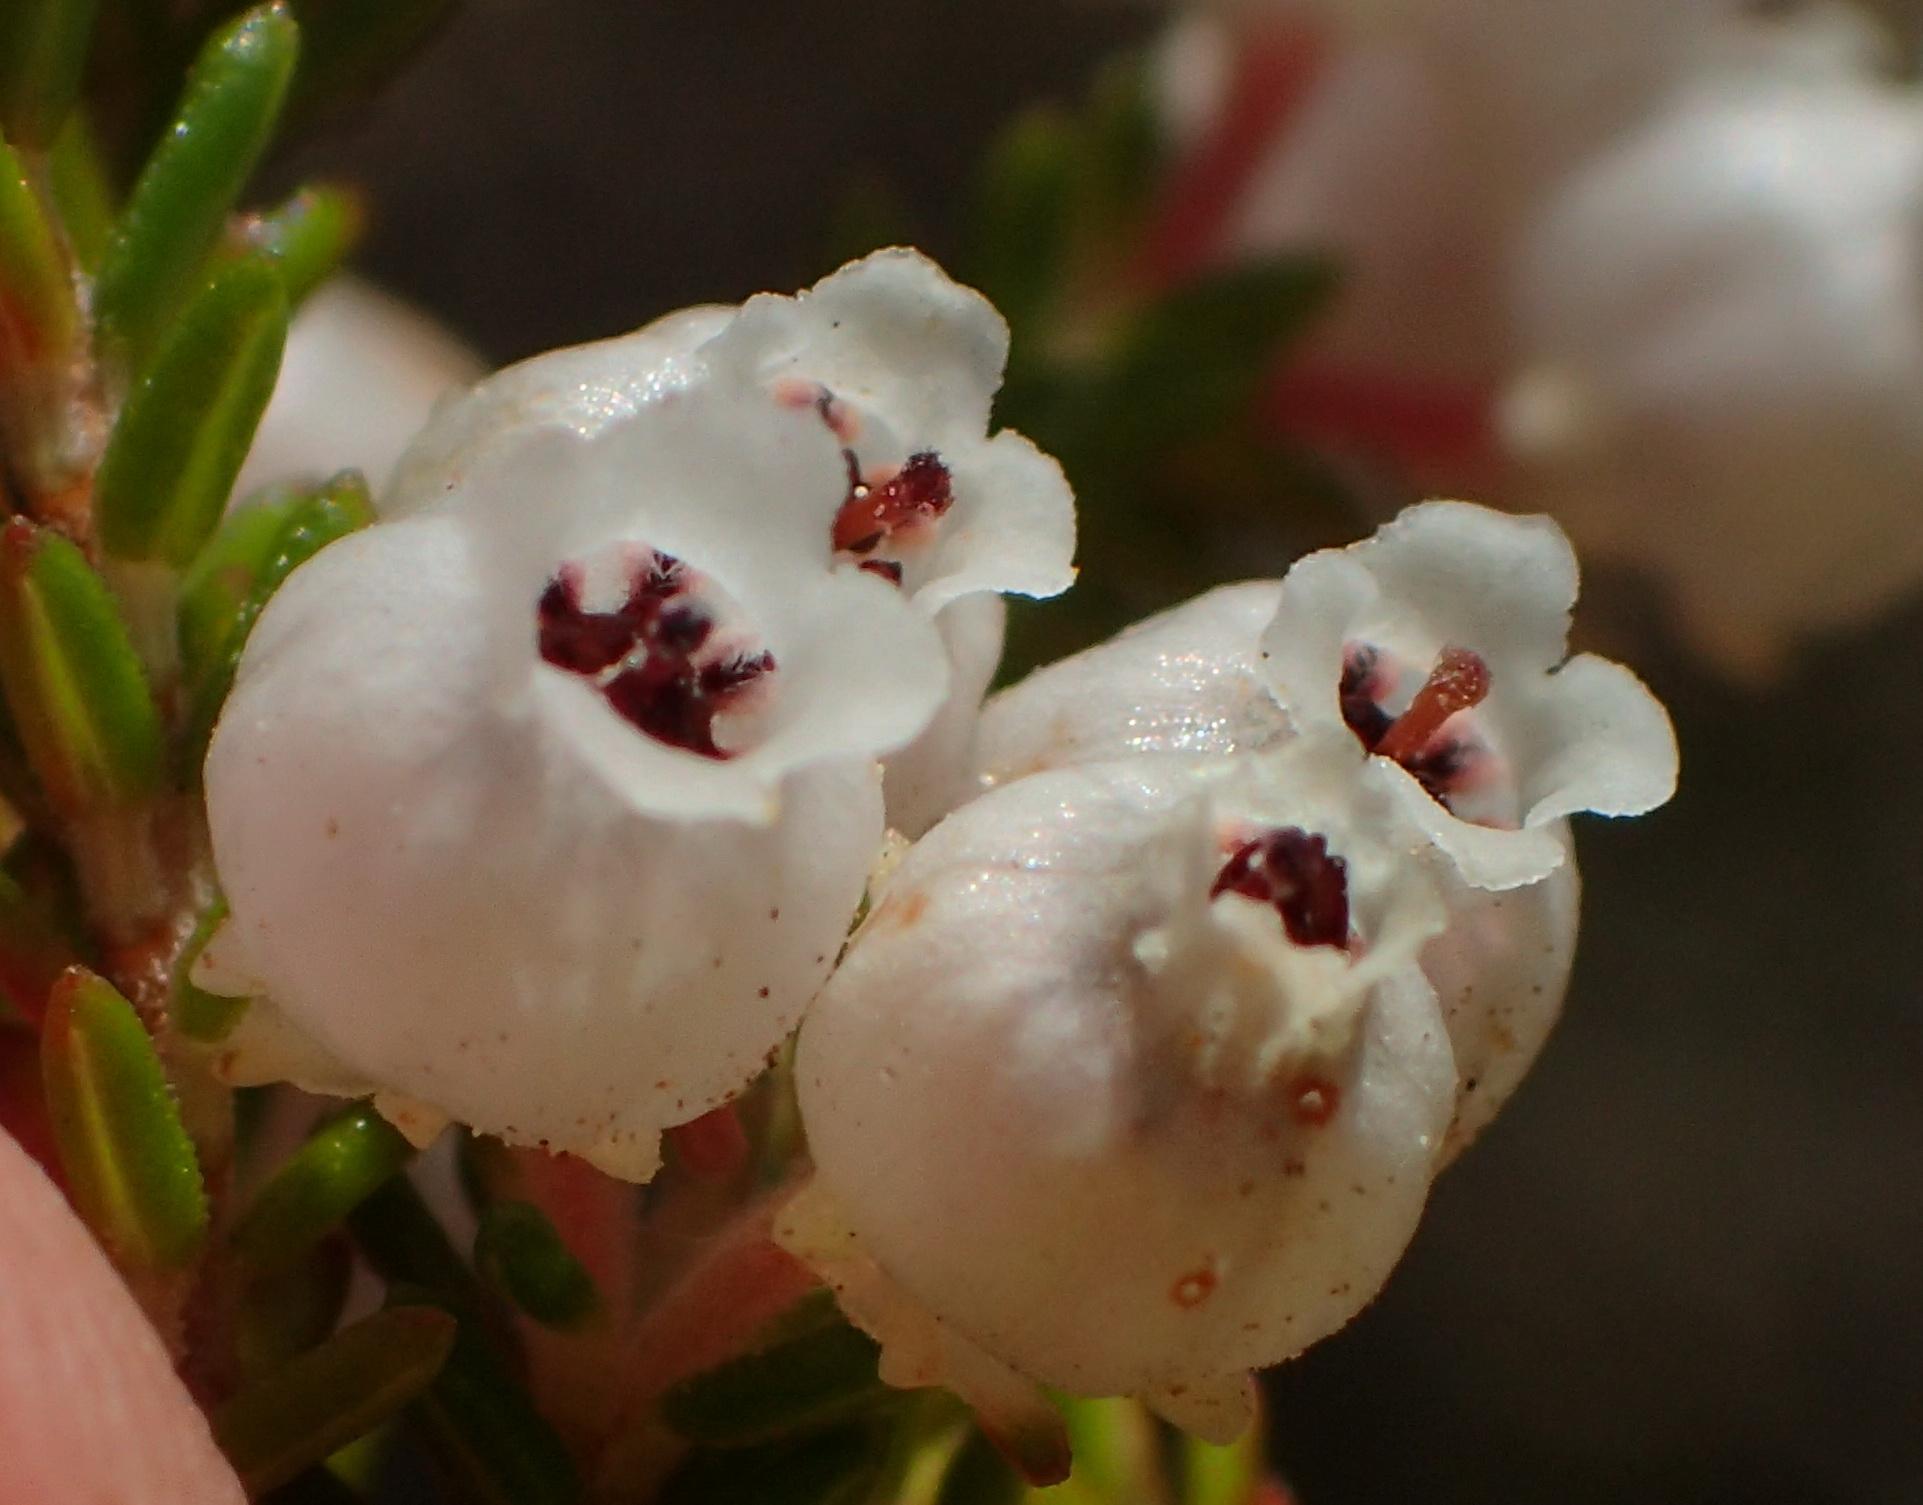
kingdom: Plantae
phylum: Tracheophyta
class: Magnoliopsida
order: Ericales
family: Ericaceae
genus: Erica
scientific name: Erica glomiflora
